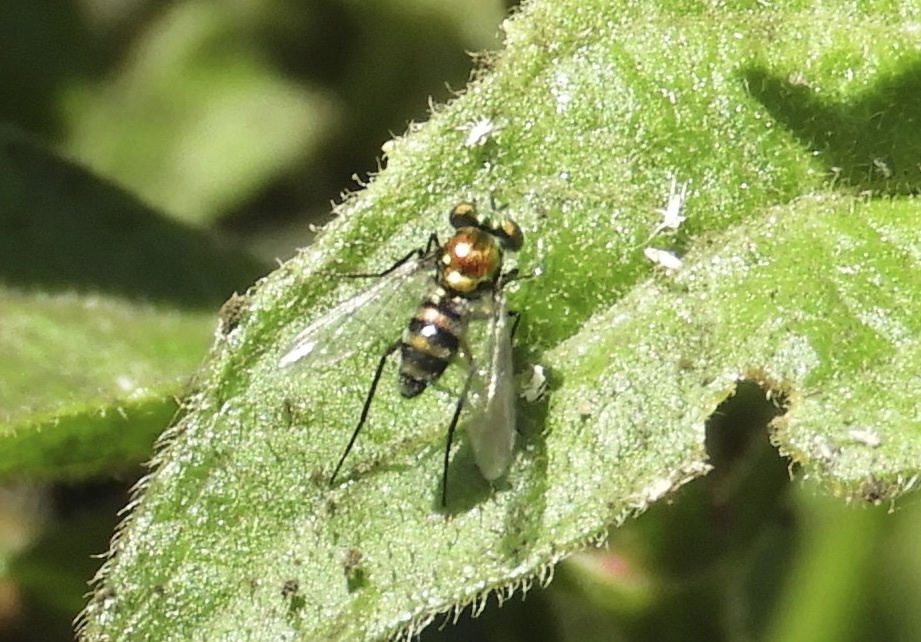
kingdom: Animalia
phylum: Arthropoda
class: Insecta
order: Diptera
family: Dolichopodidae
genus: Condylostylus
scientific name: Condylostylus
